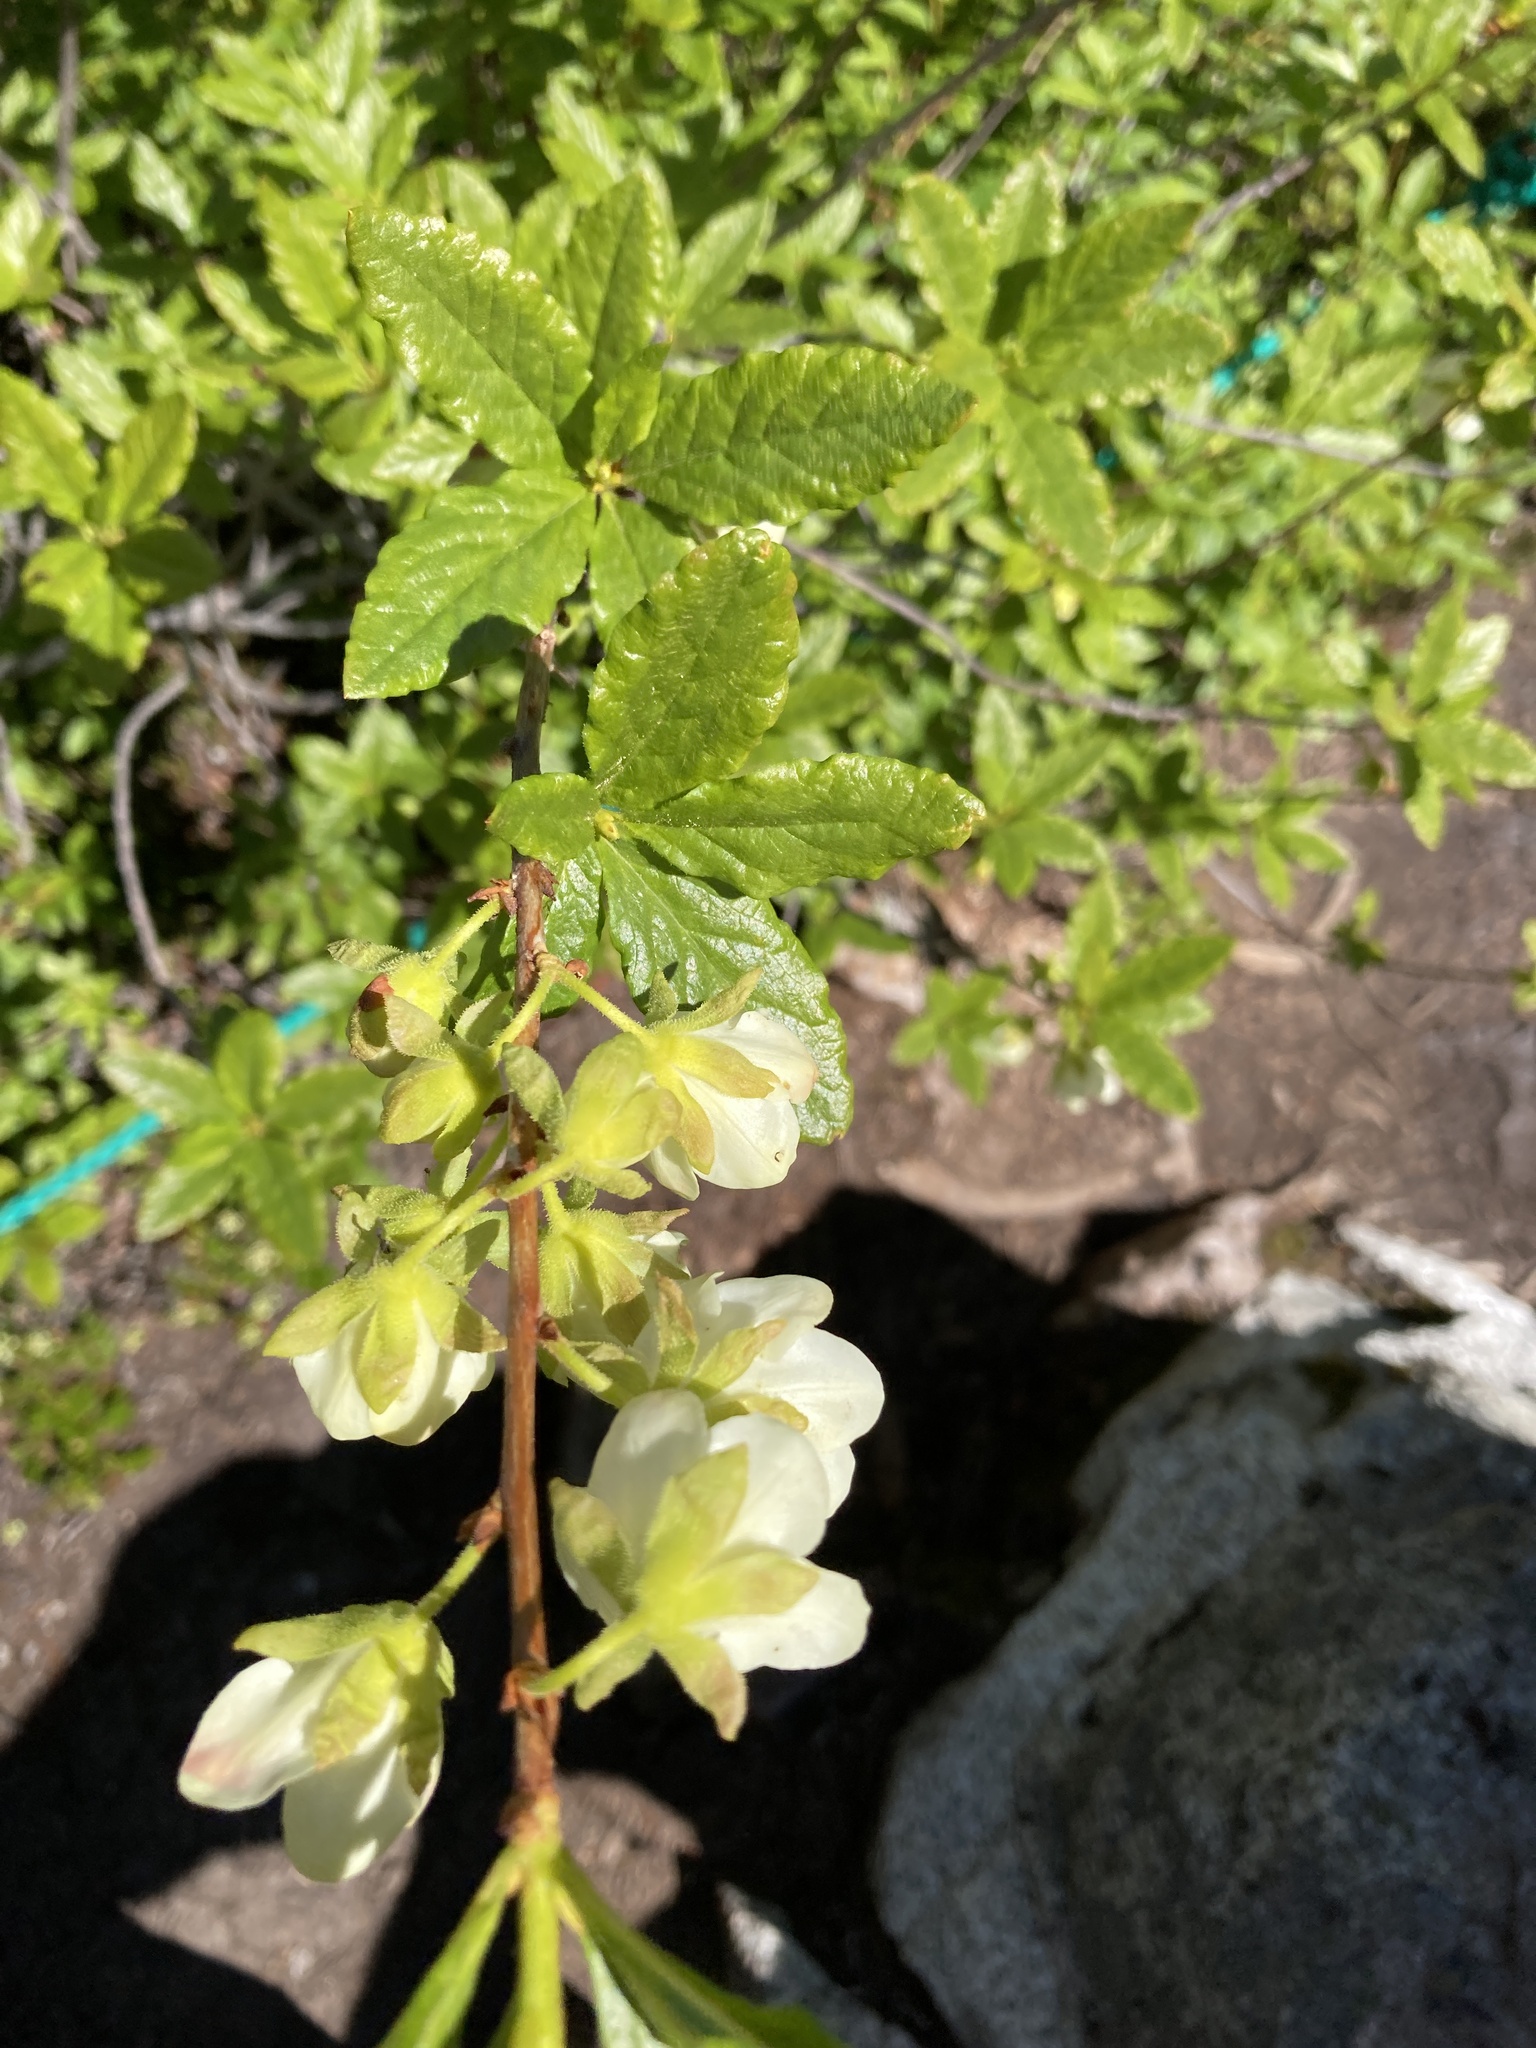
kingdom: Plantae
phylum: Tracheophyta
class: Magnoliopsida
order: Ericales
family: Ericaceae
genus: Rhododendron
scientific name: Rhododendron albiflorum
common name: White rhododendron
